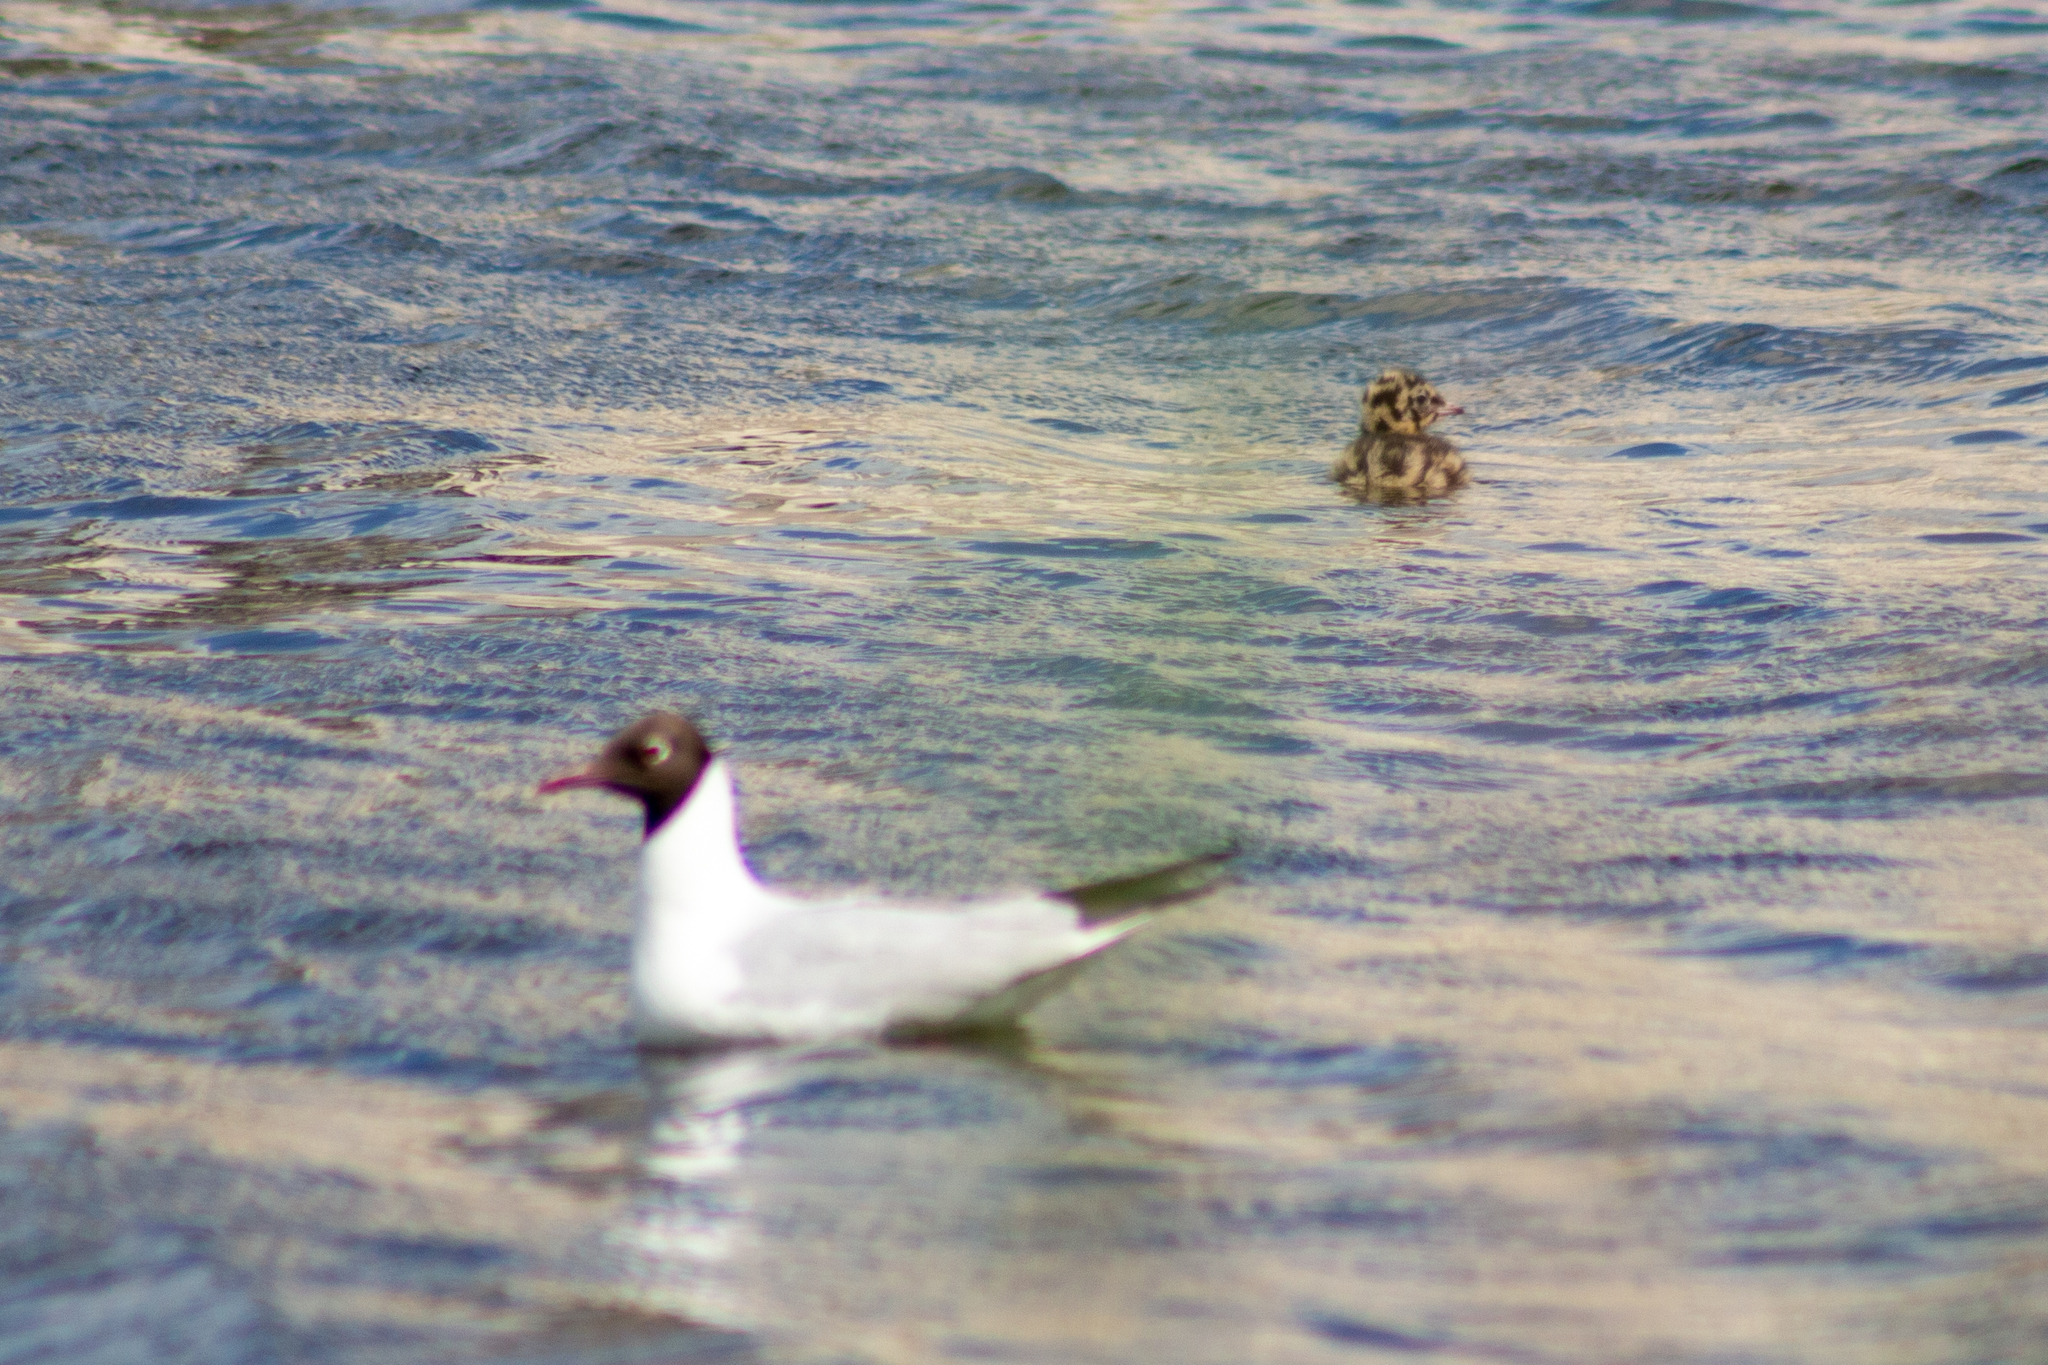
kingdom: Animalia
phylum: Chordata
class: Aves
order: Charadriiformes
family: Laridae
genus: Chroicocephalus
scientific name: Chroicocephalus ridibundus
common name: Black-headed gull
